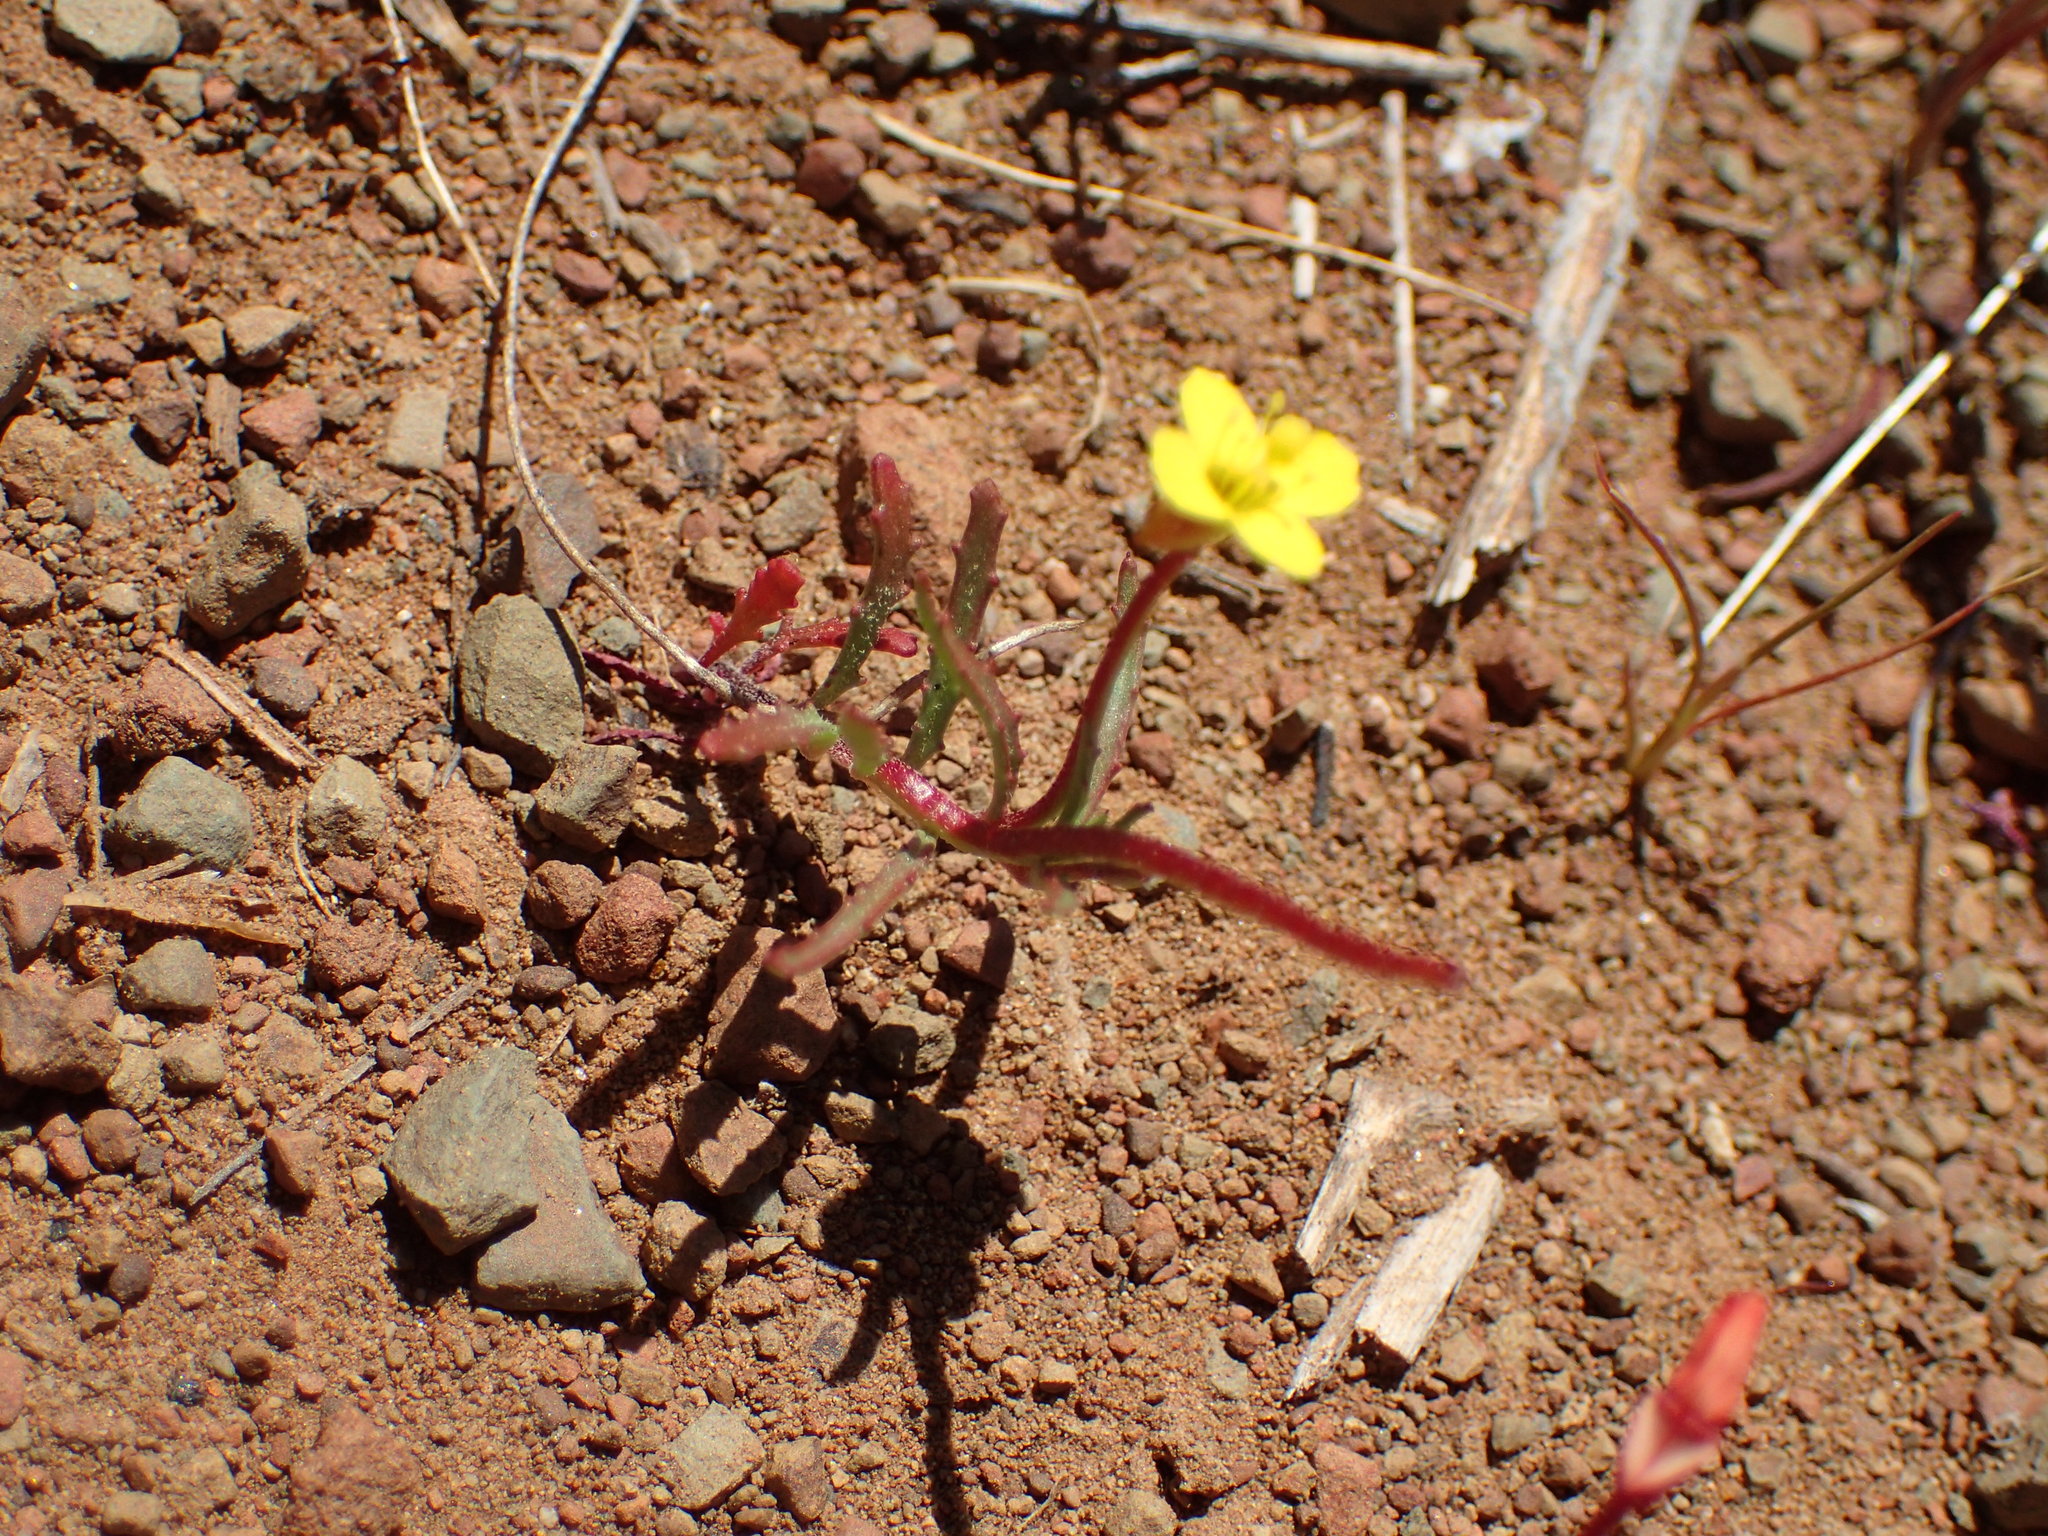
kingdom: Plantae
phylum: Tracheophyta
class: Magnoliopsida
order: Myrtales
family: Onagraceae
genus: Camissonia
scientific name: Camissonia strigulosa
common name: Contorted-primrose
